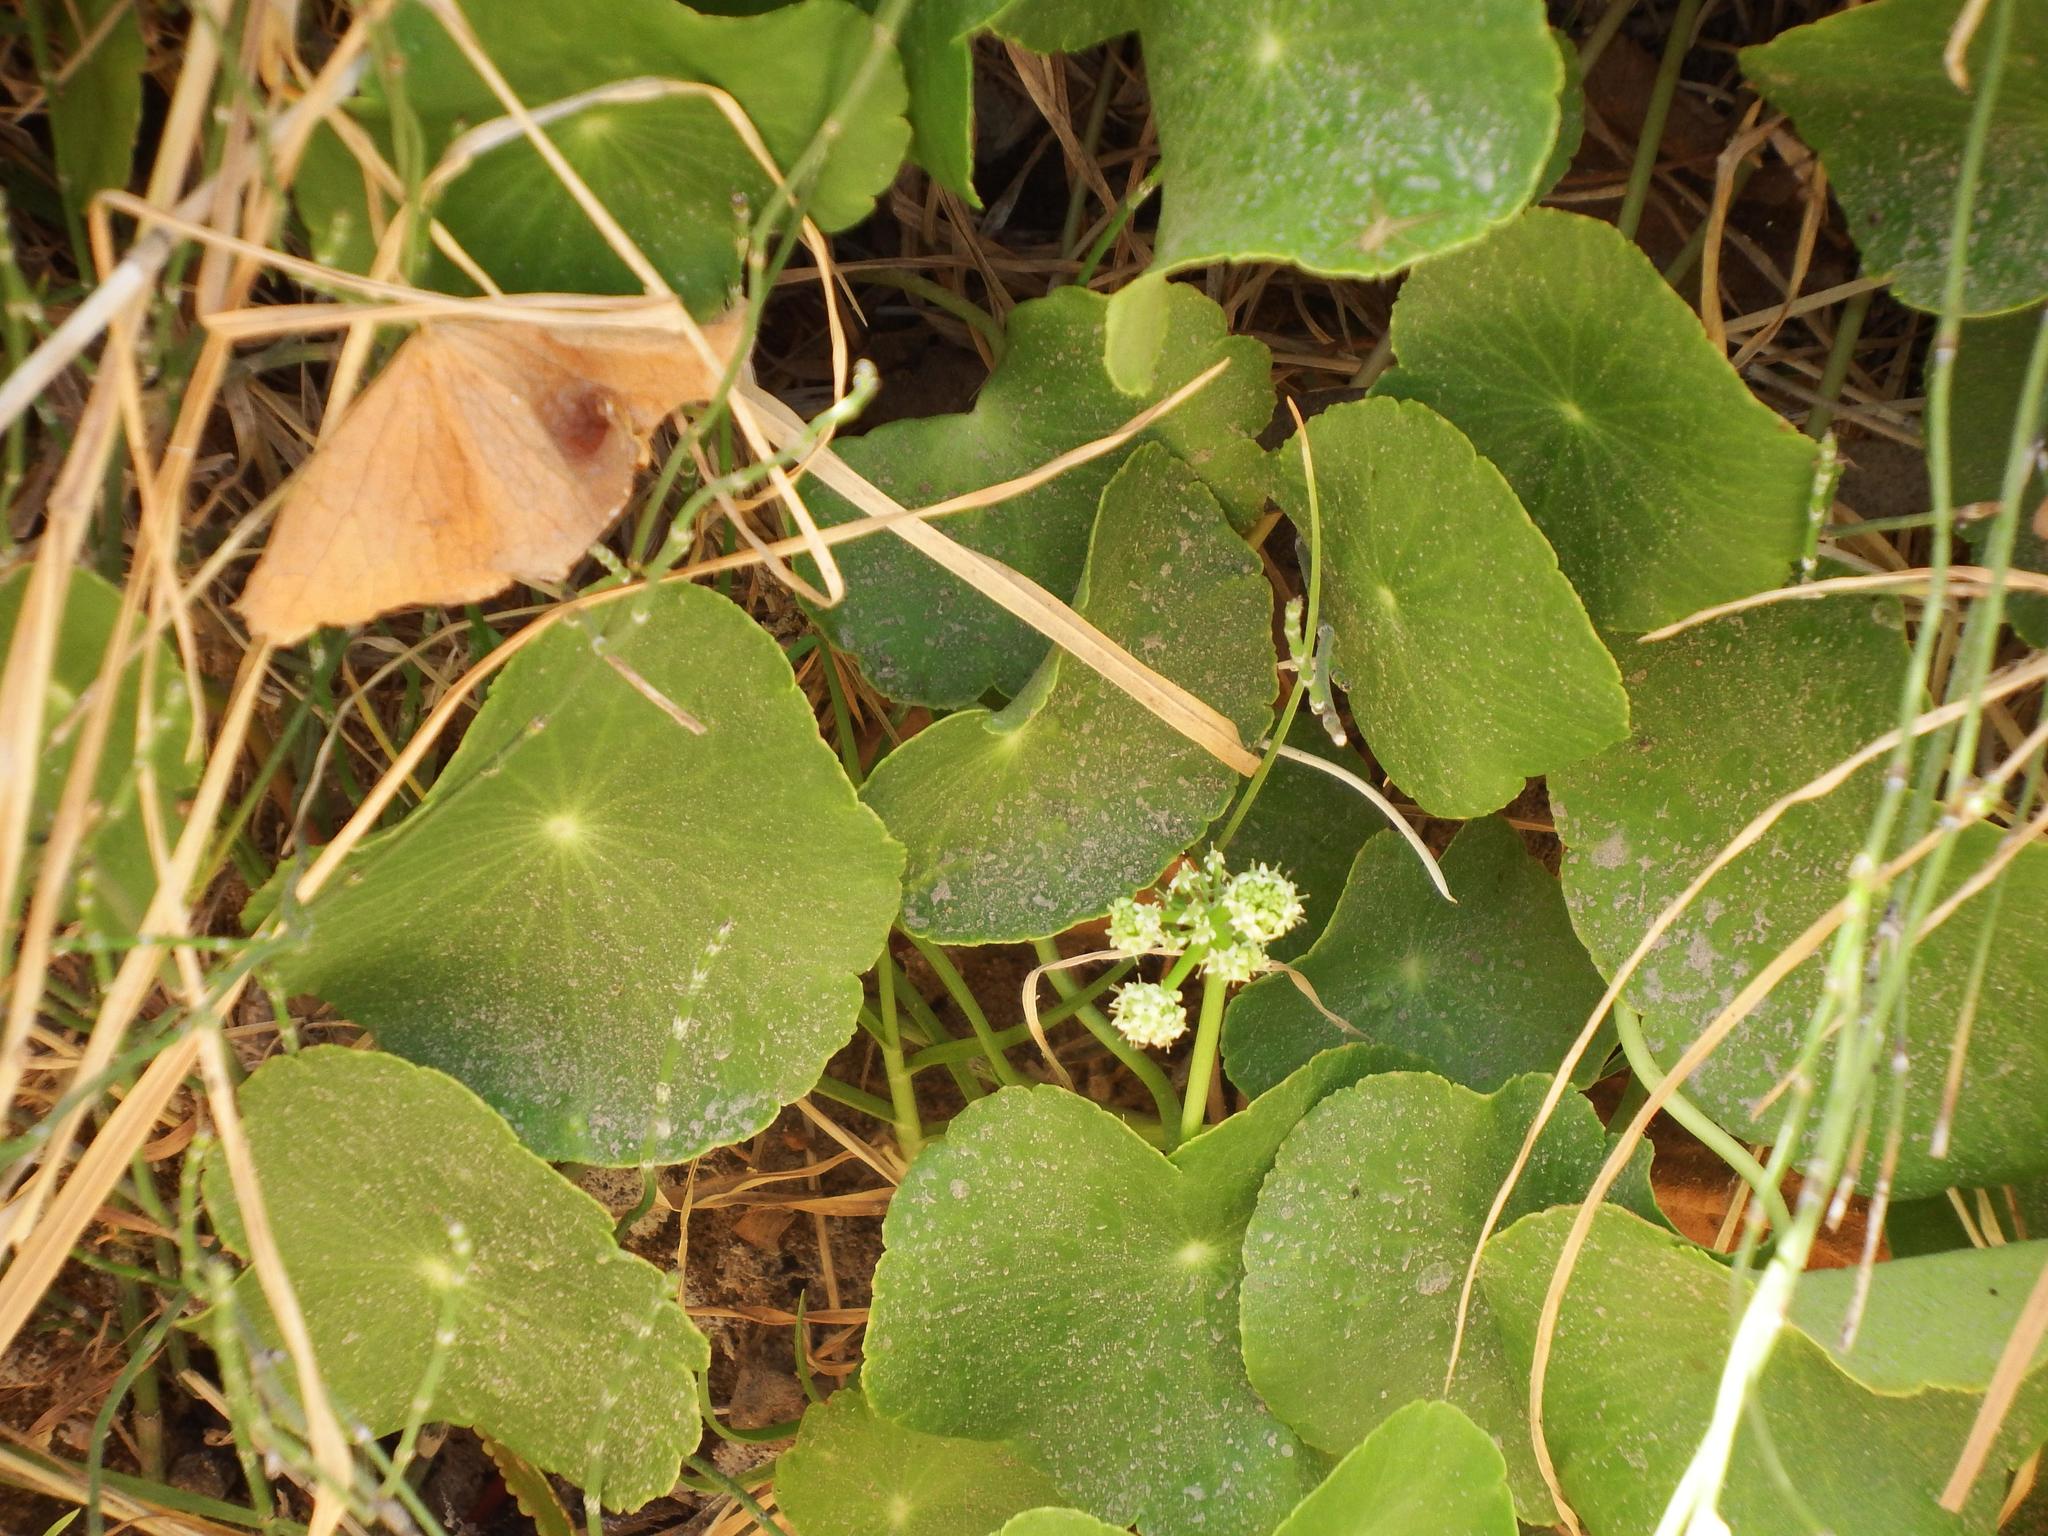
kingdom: Plantae
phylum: Tracheophyta
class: Magnoliopsida
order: Apiales
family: Araliaceae
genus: Hydrocotyle
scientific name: Hydrocotyle bonariensis
